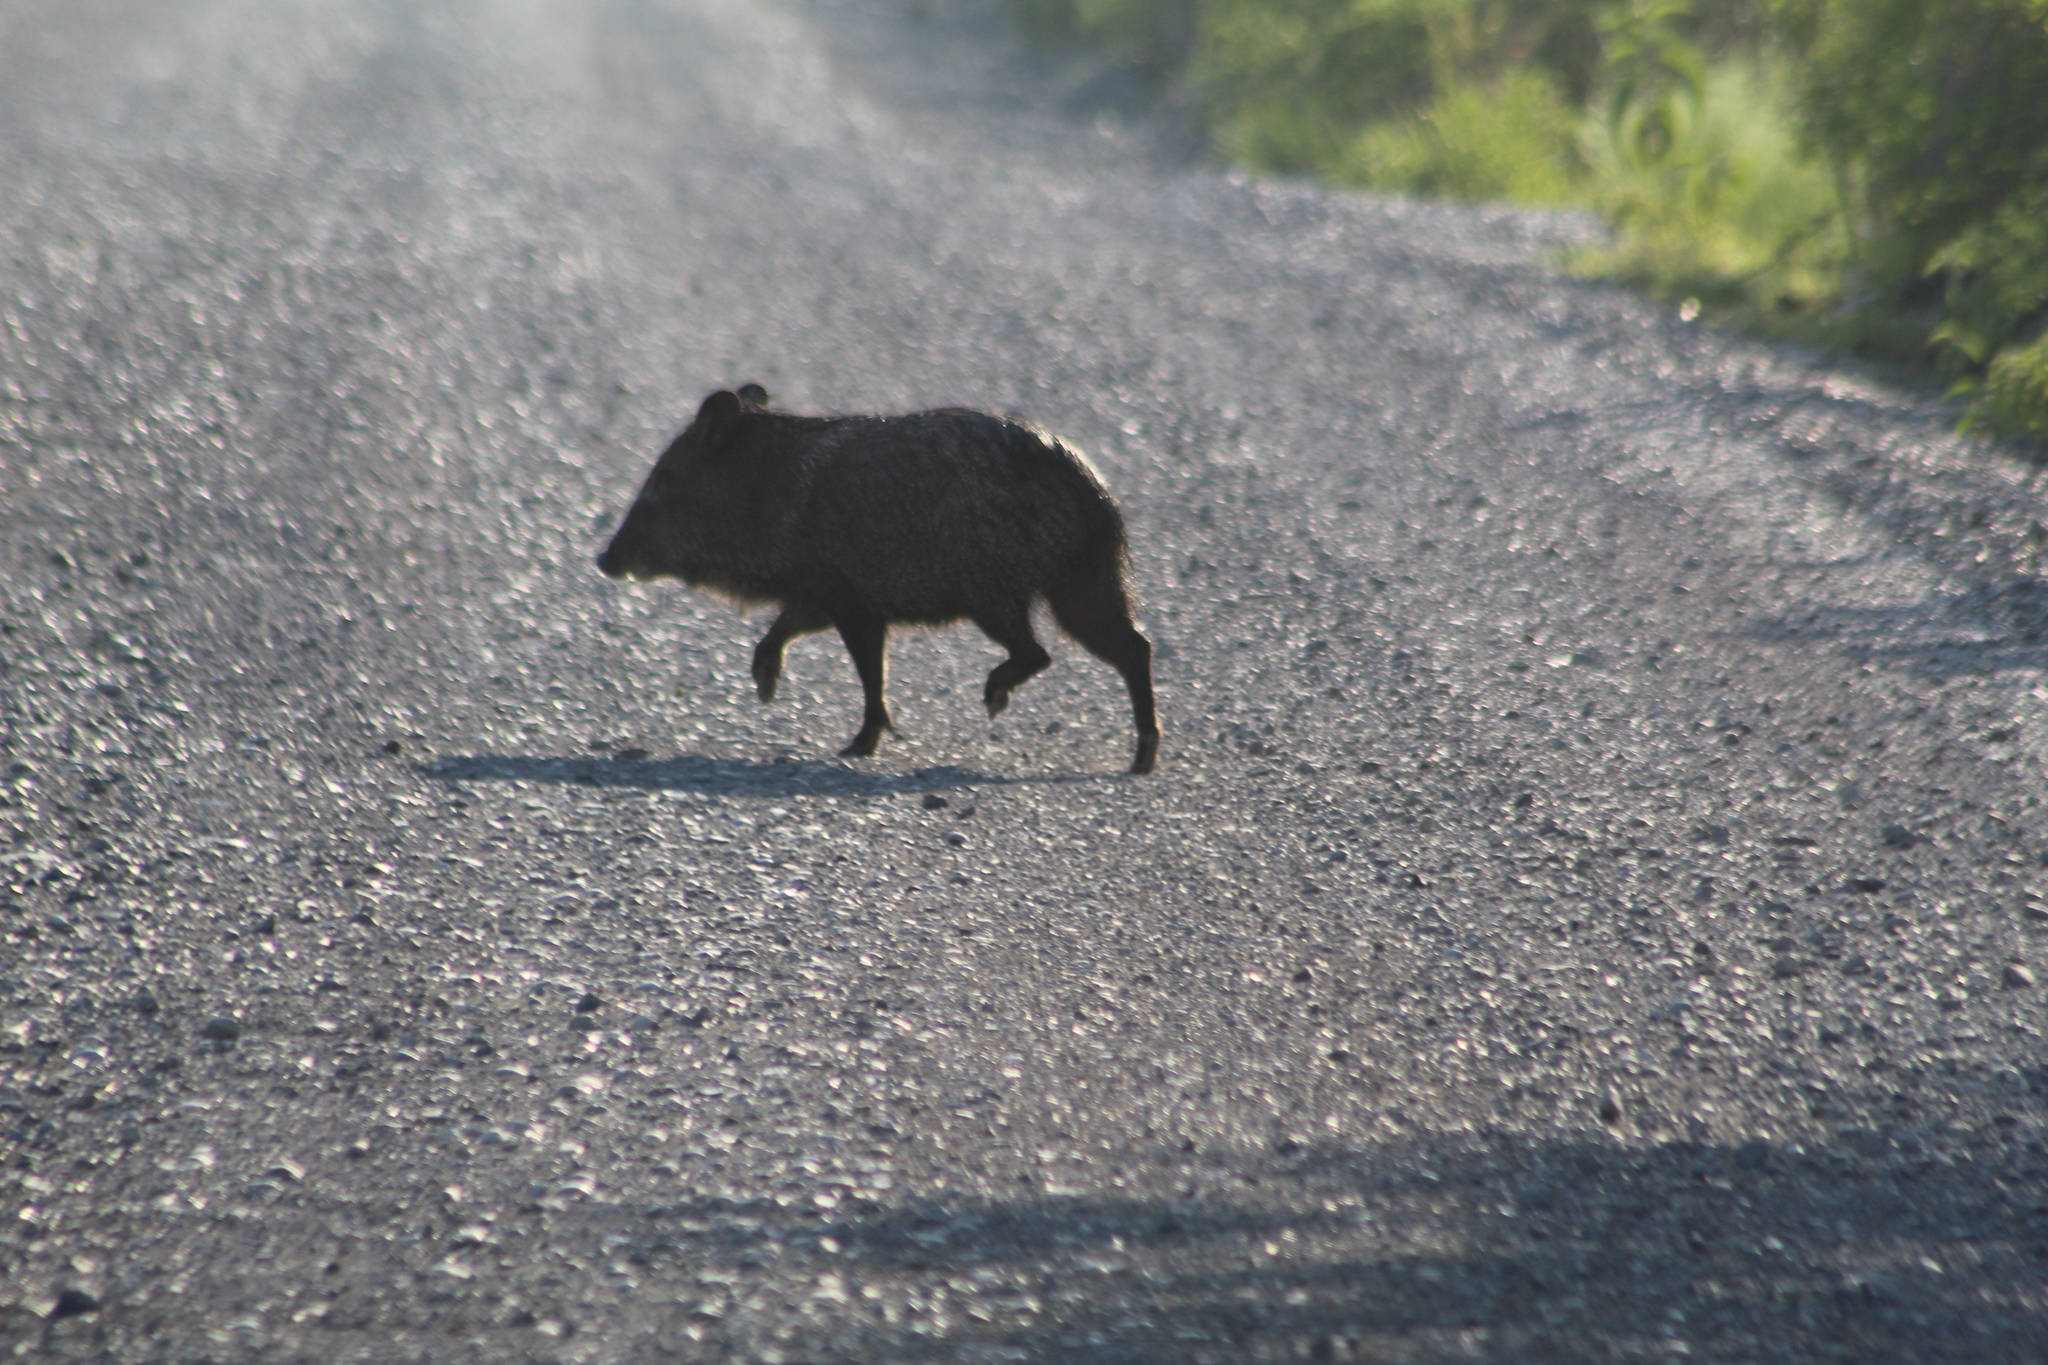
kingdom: Animalia
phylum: Chordata
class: Mammalia
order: Artiodactyla
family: Tayassuidae
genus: Pecari
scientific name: Pecari tajacu
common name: Collared peccary
